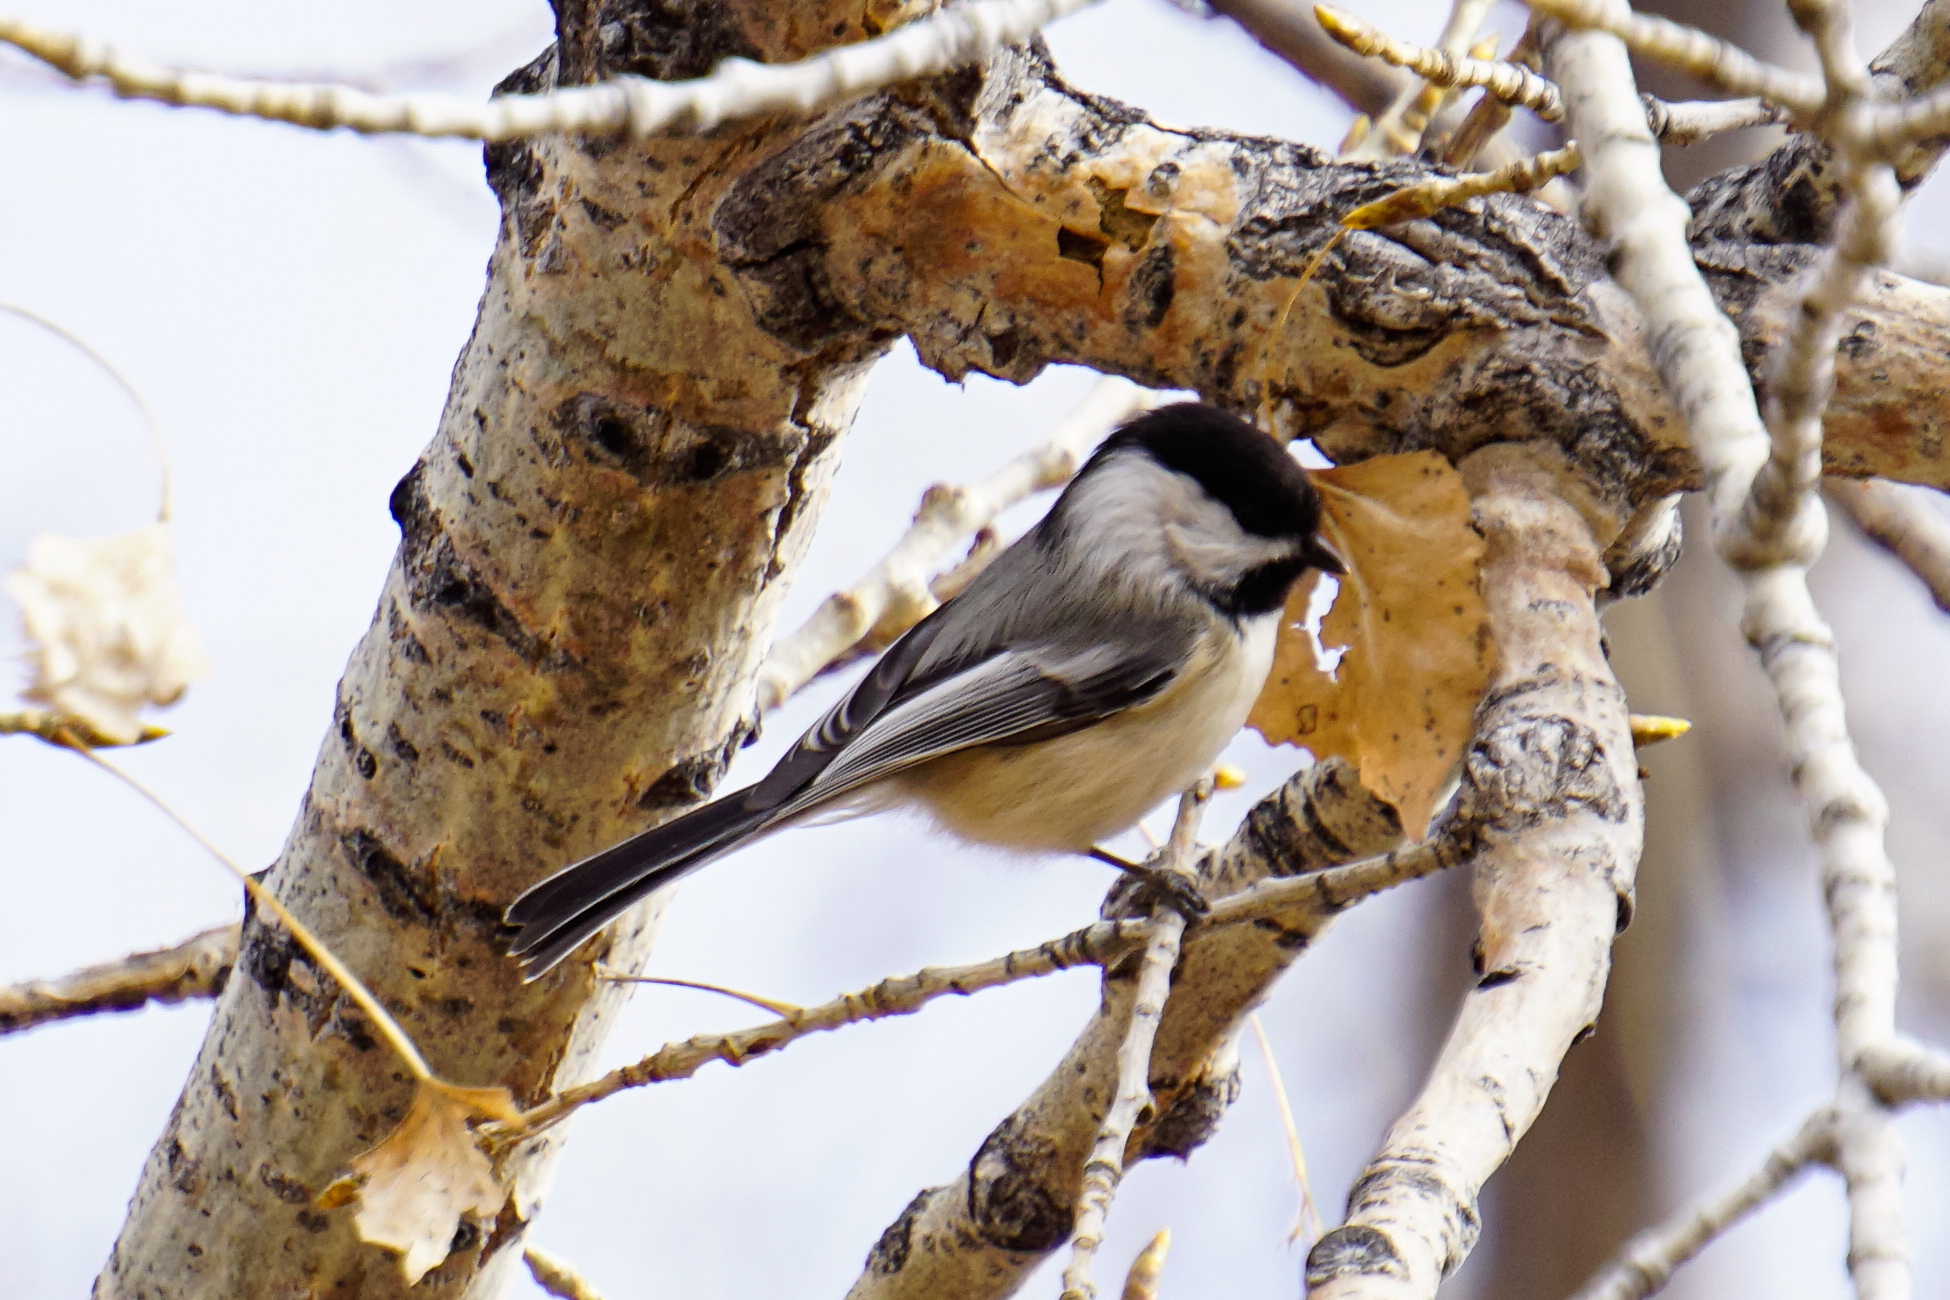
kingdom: Animalia
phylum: Chordata
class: Aves
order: Passeriformes
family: Paridae
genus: Poecile
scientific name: Poecile atricapillus
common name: Black-capped chickadee
